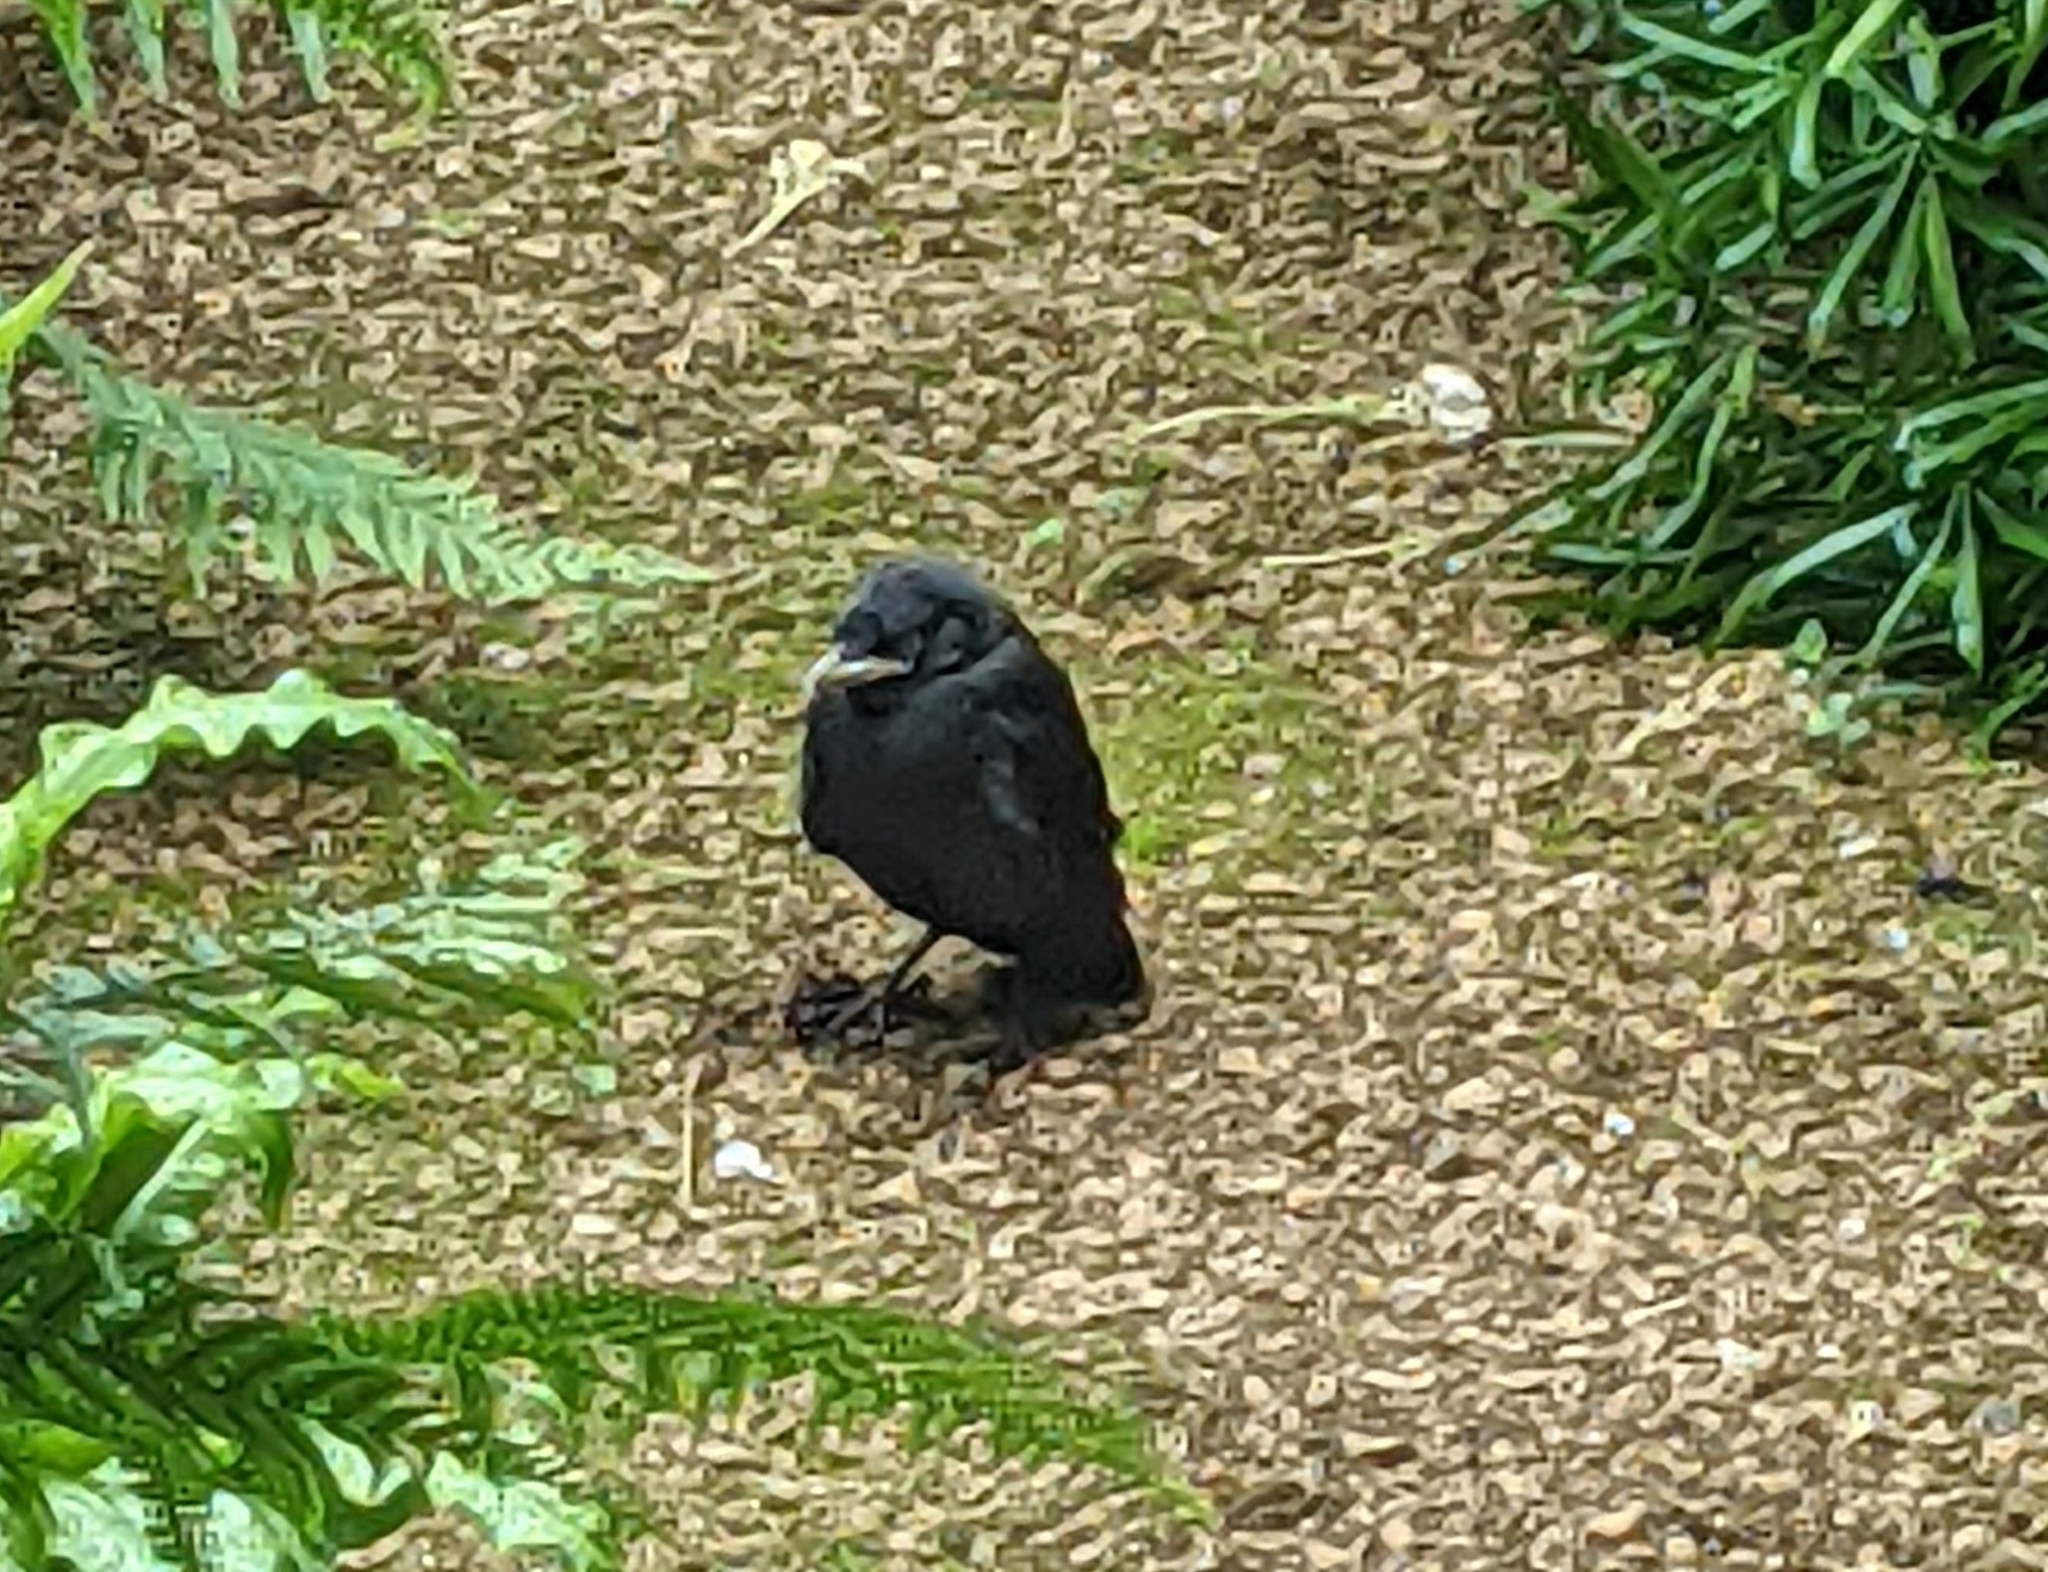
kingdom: Animalia
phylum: Chordata
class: Aves
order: Passeriformes
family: Corvidae
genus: Coloeus
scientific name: Coloeus monedula
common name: Western jackdaw
